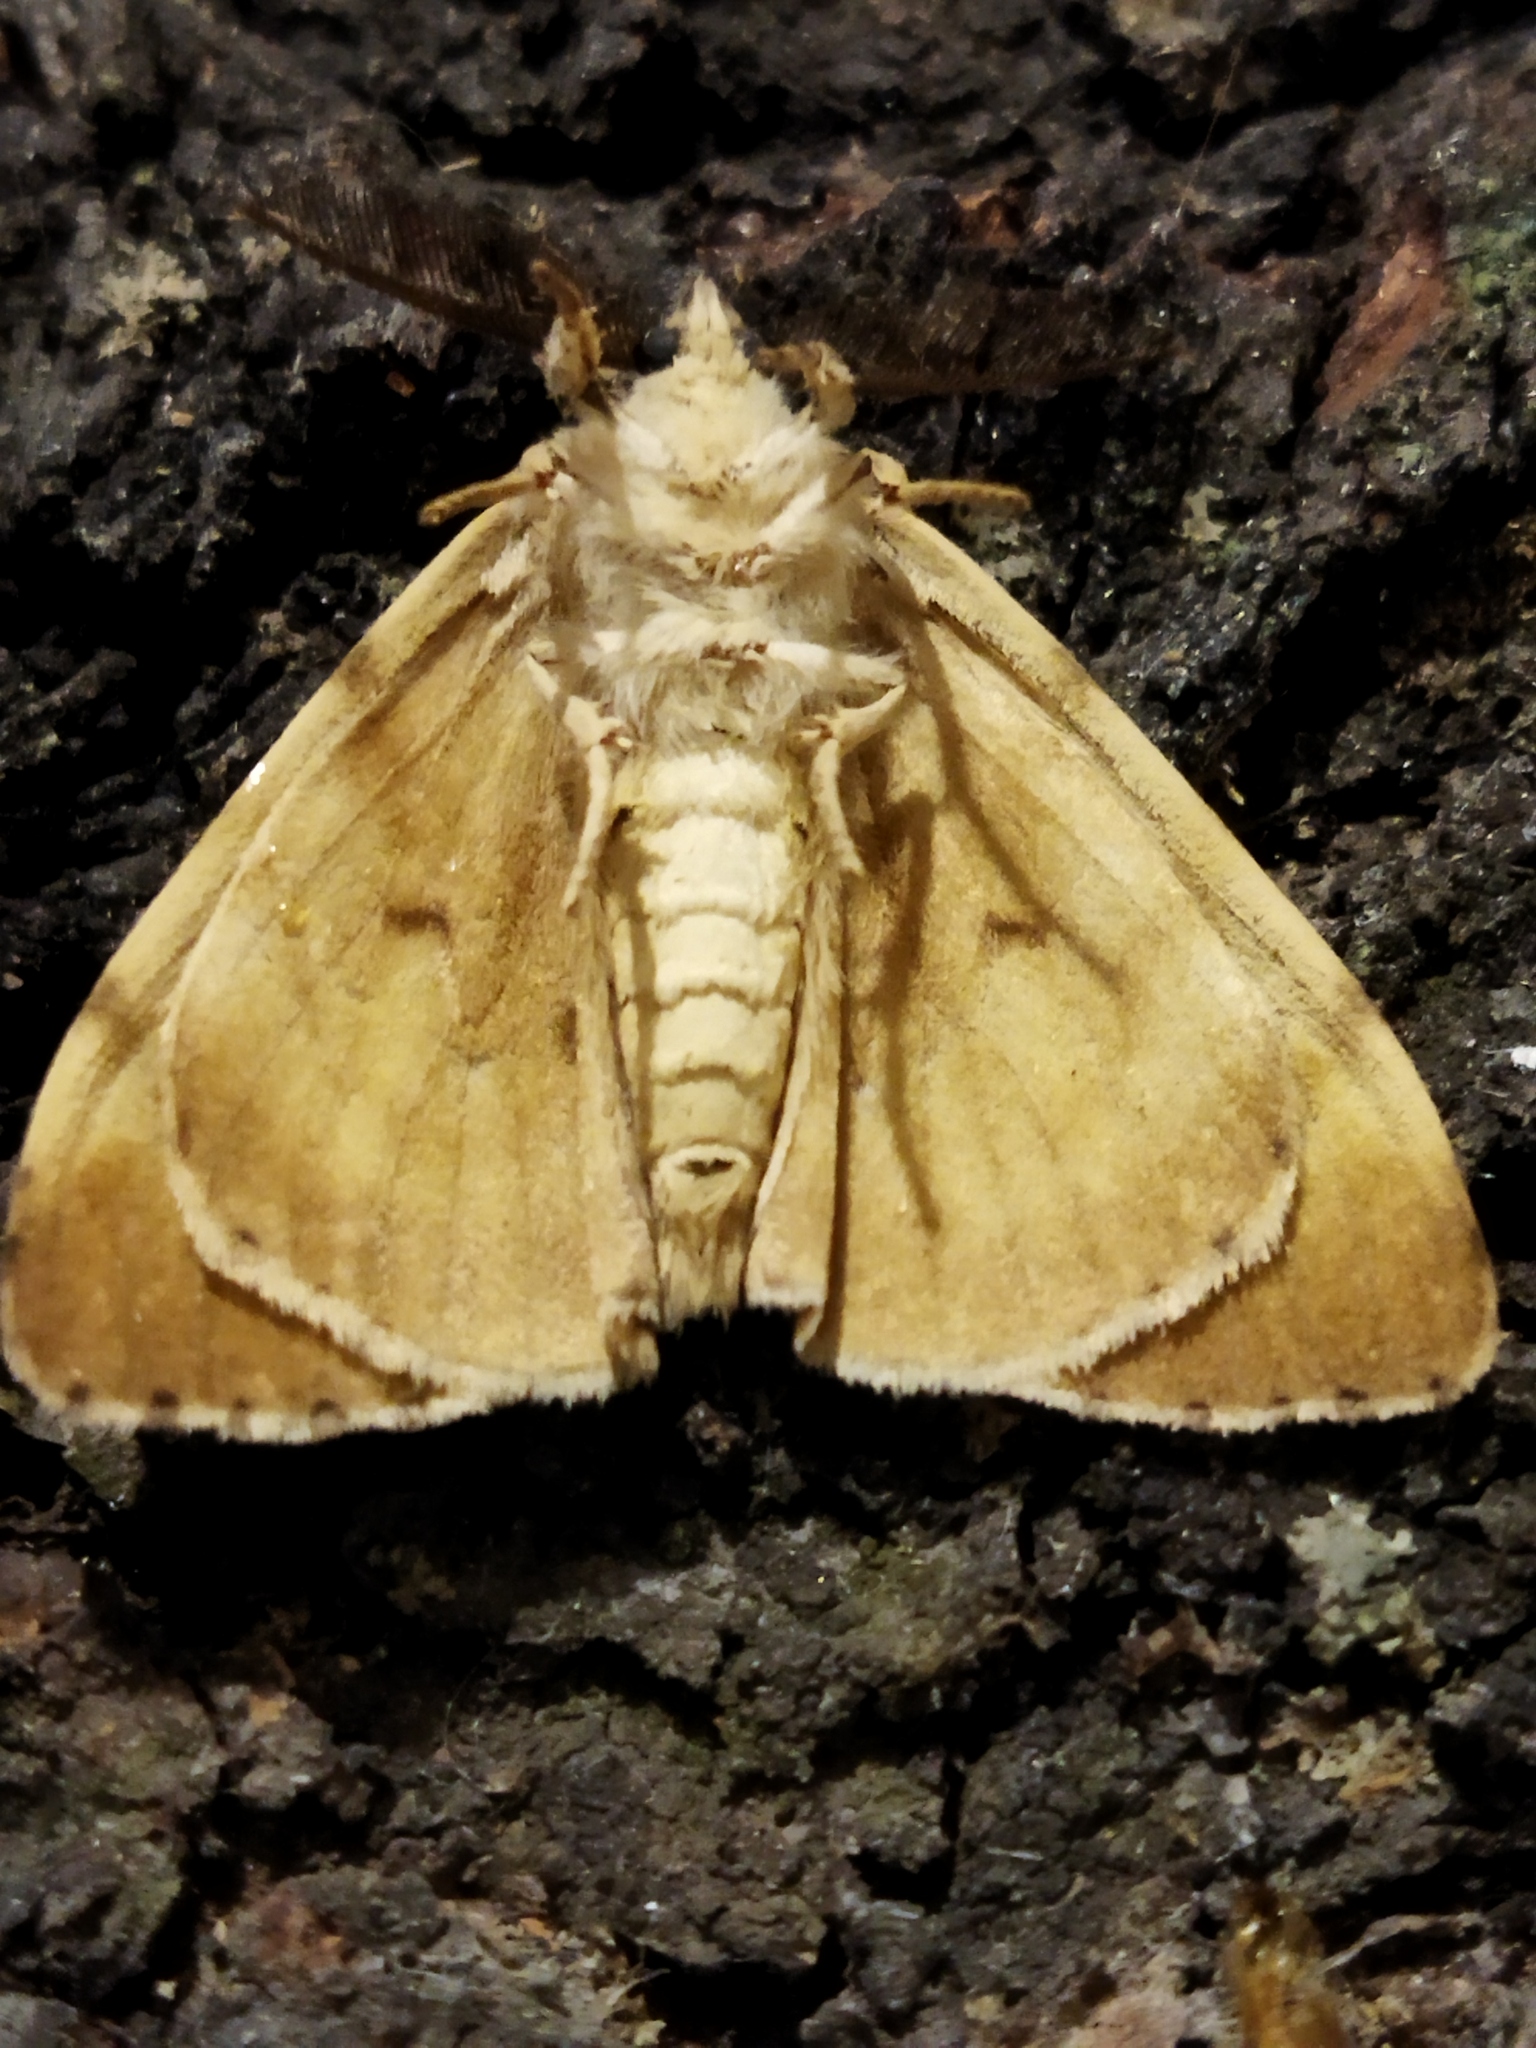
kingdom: Animalia
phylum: Arthropoda
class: Insecta
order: Lepidoptera
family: Erebidae
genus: Lymantria
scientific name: Lymantria dispar
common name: Gypsy moth
